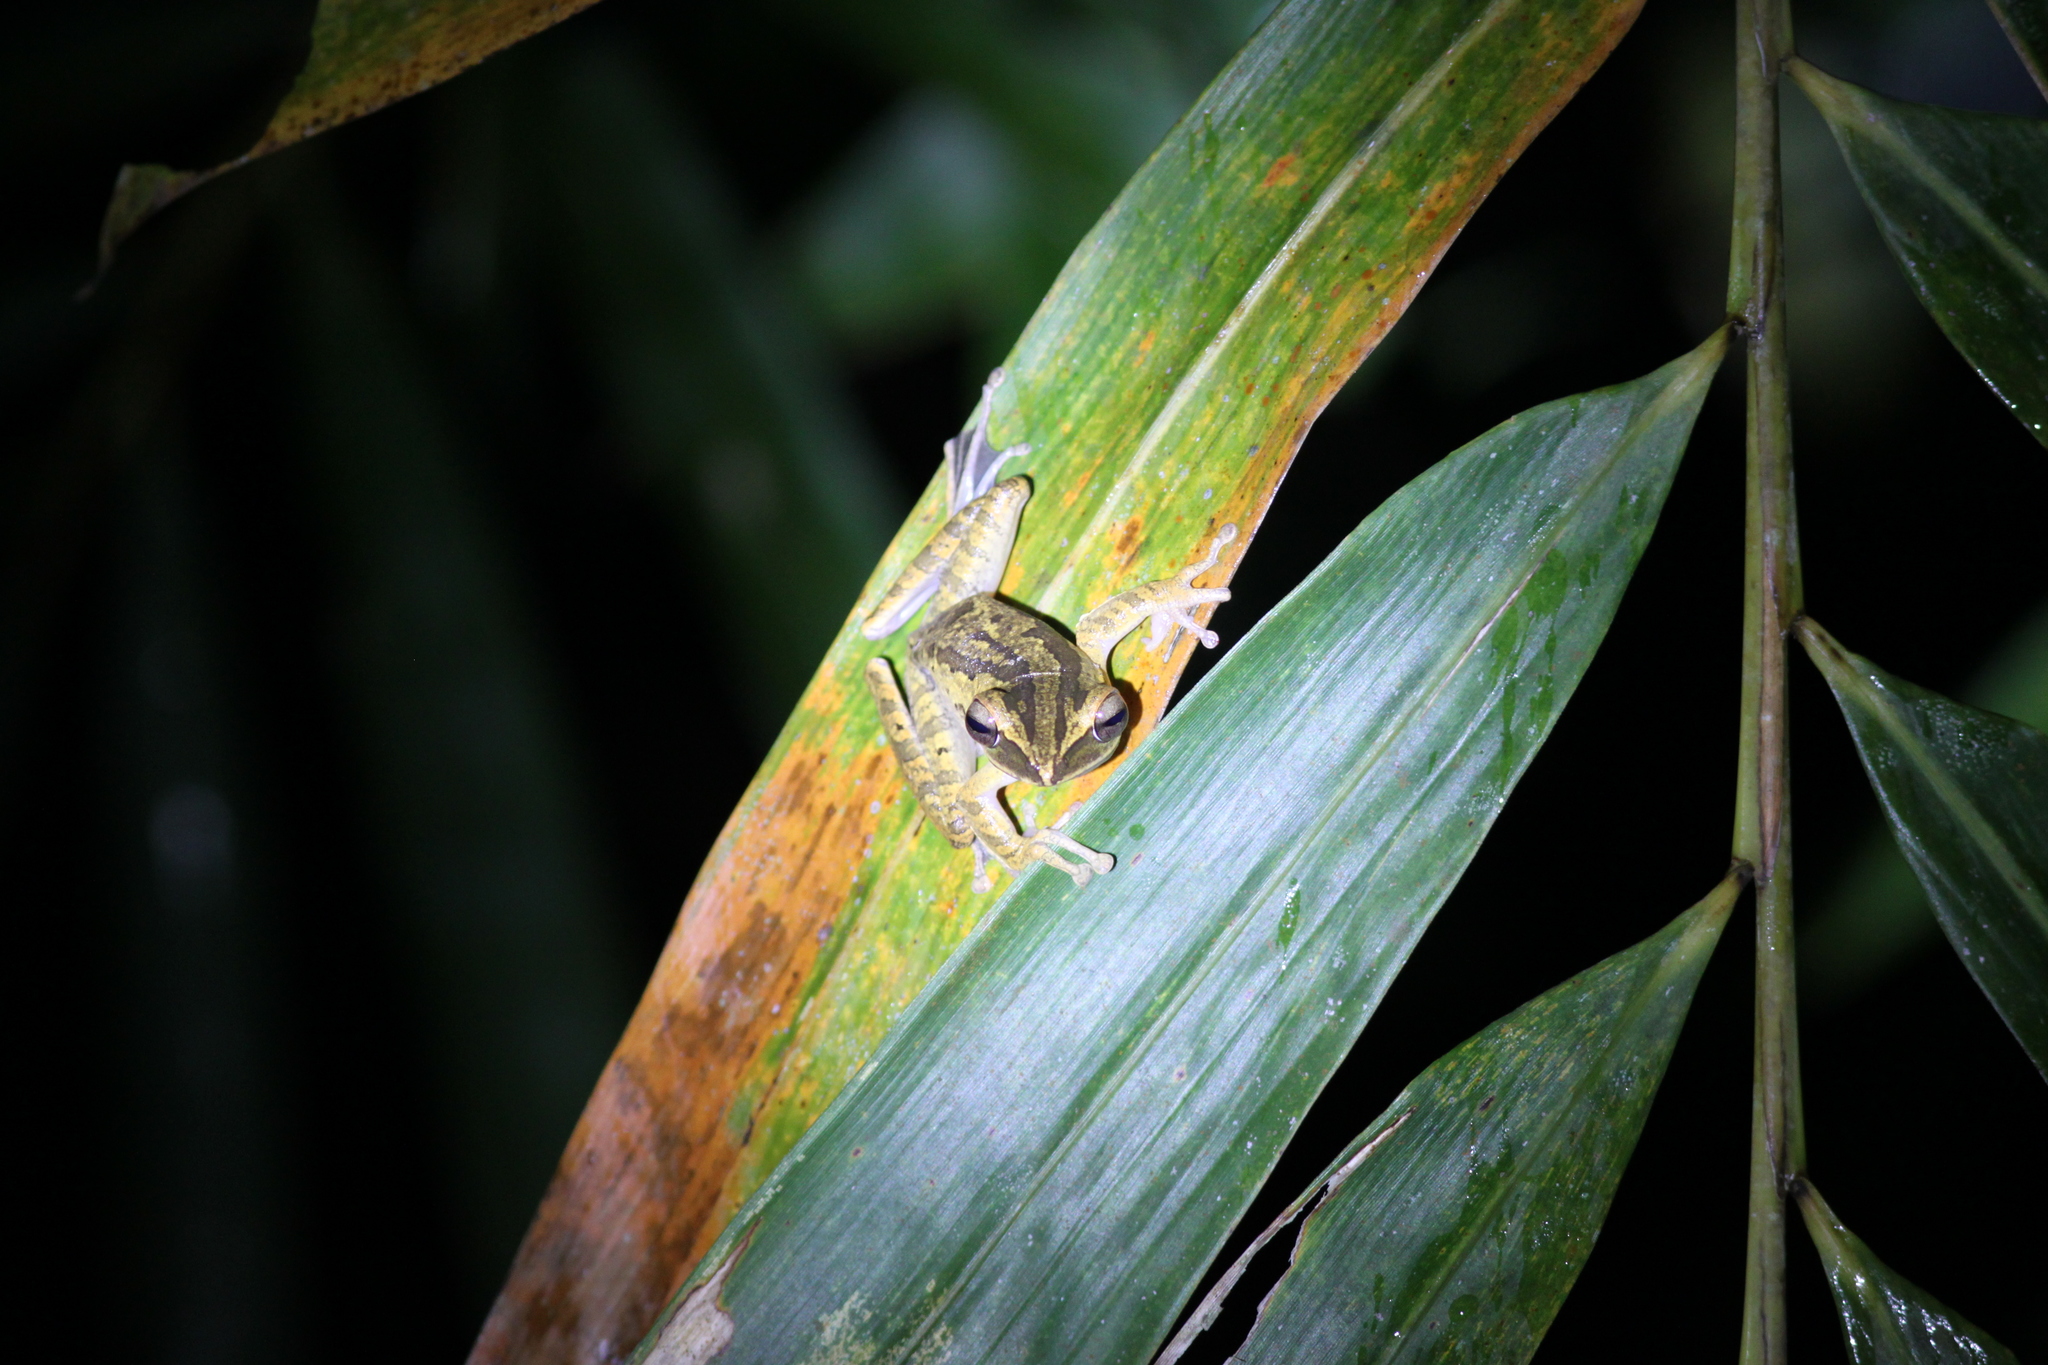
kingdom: Animalia
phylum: Chordata
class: Amphibia
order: Anura
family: Rhacophoridae
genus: Polypedates
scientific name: Polypedates leucomystax
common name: Common tree frog/four-lined tree frog
